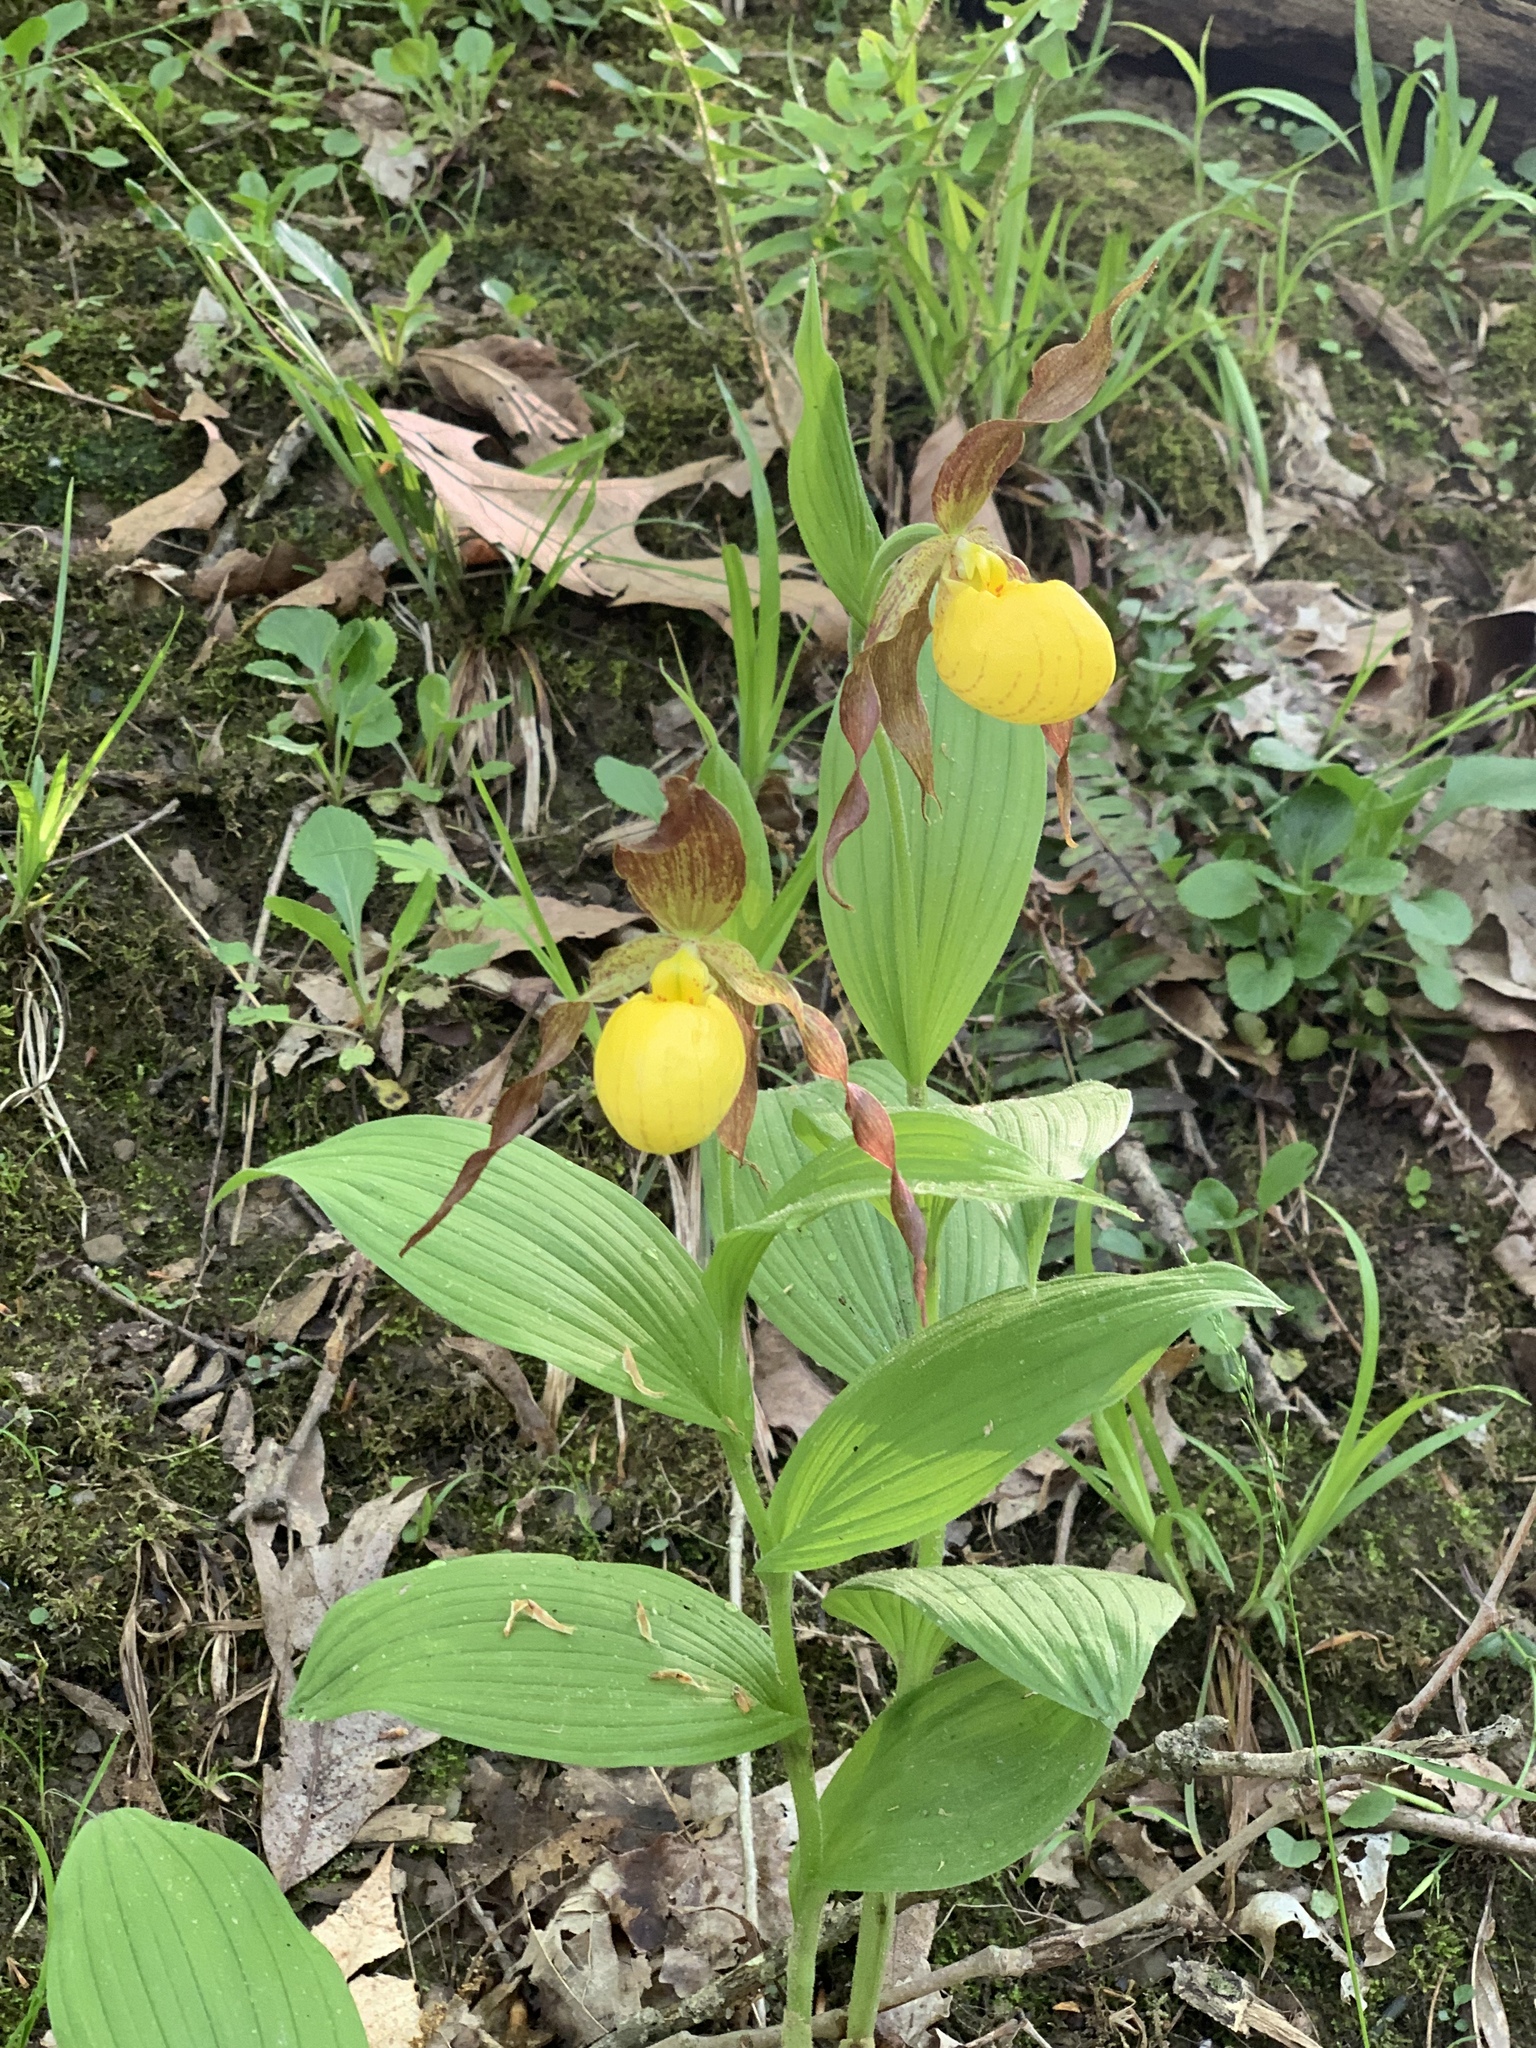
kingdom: Plantae
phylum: Tracheophyta
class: Liliopsida
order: Asparagales
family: Orchidaceae
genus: Cypripedium
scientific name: Cypripedium parviflorum
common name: American yellow lady's-slipper
